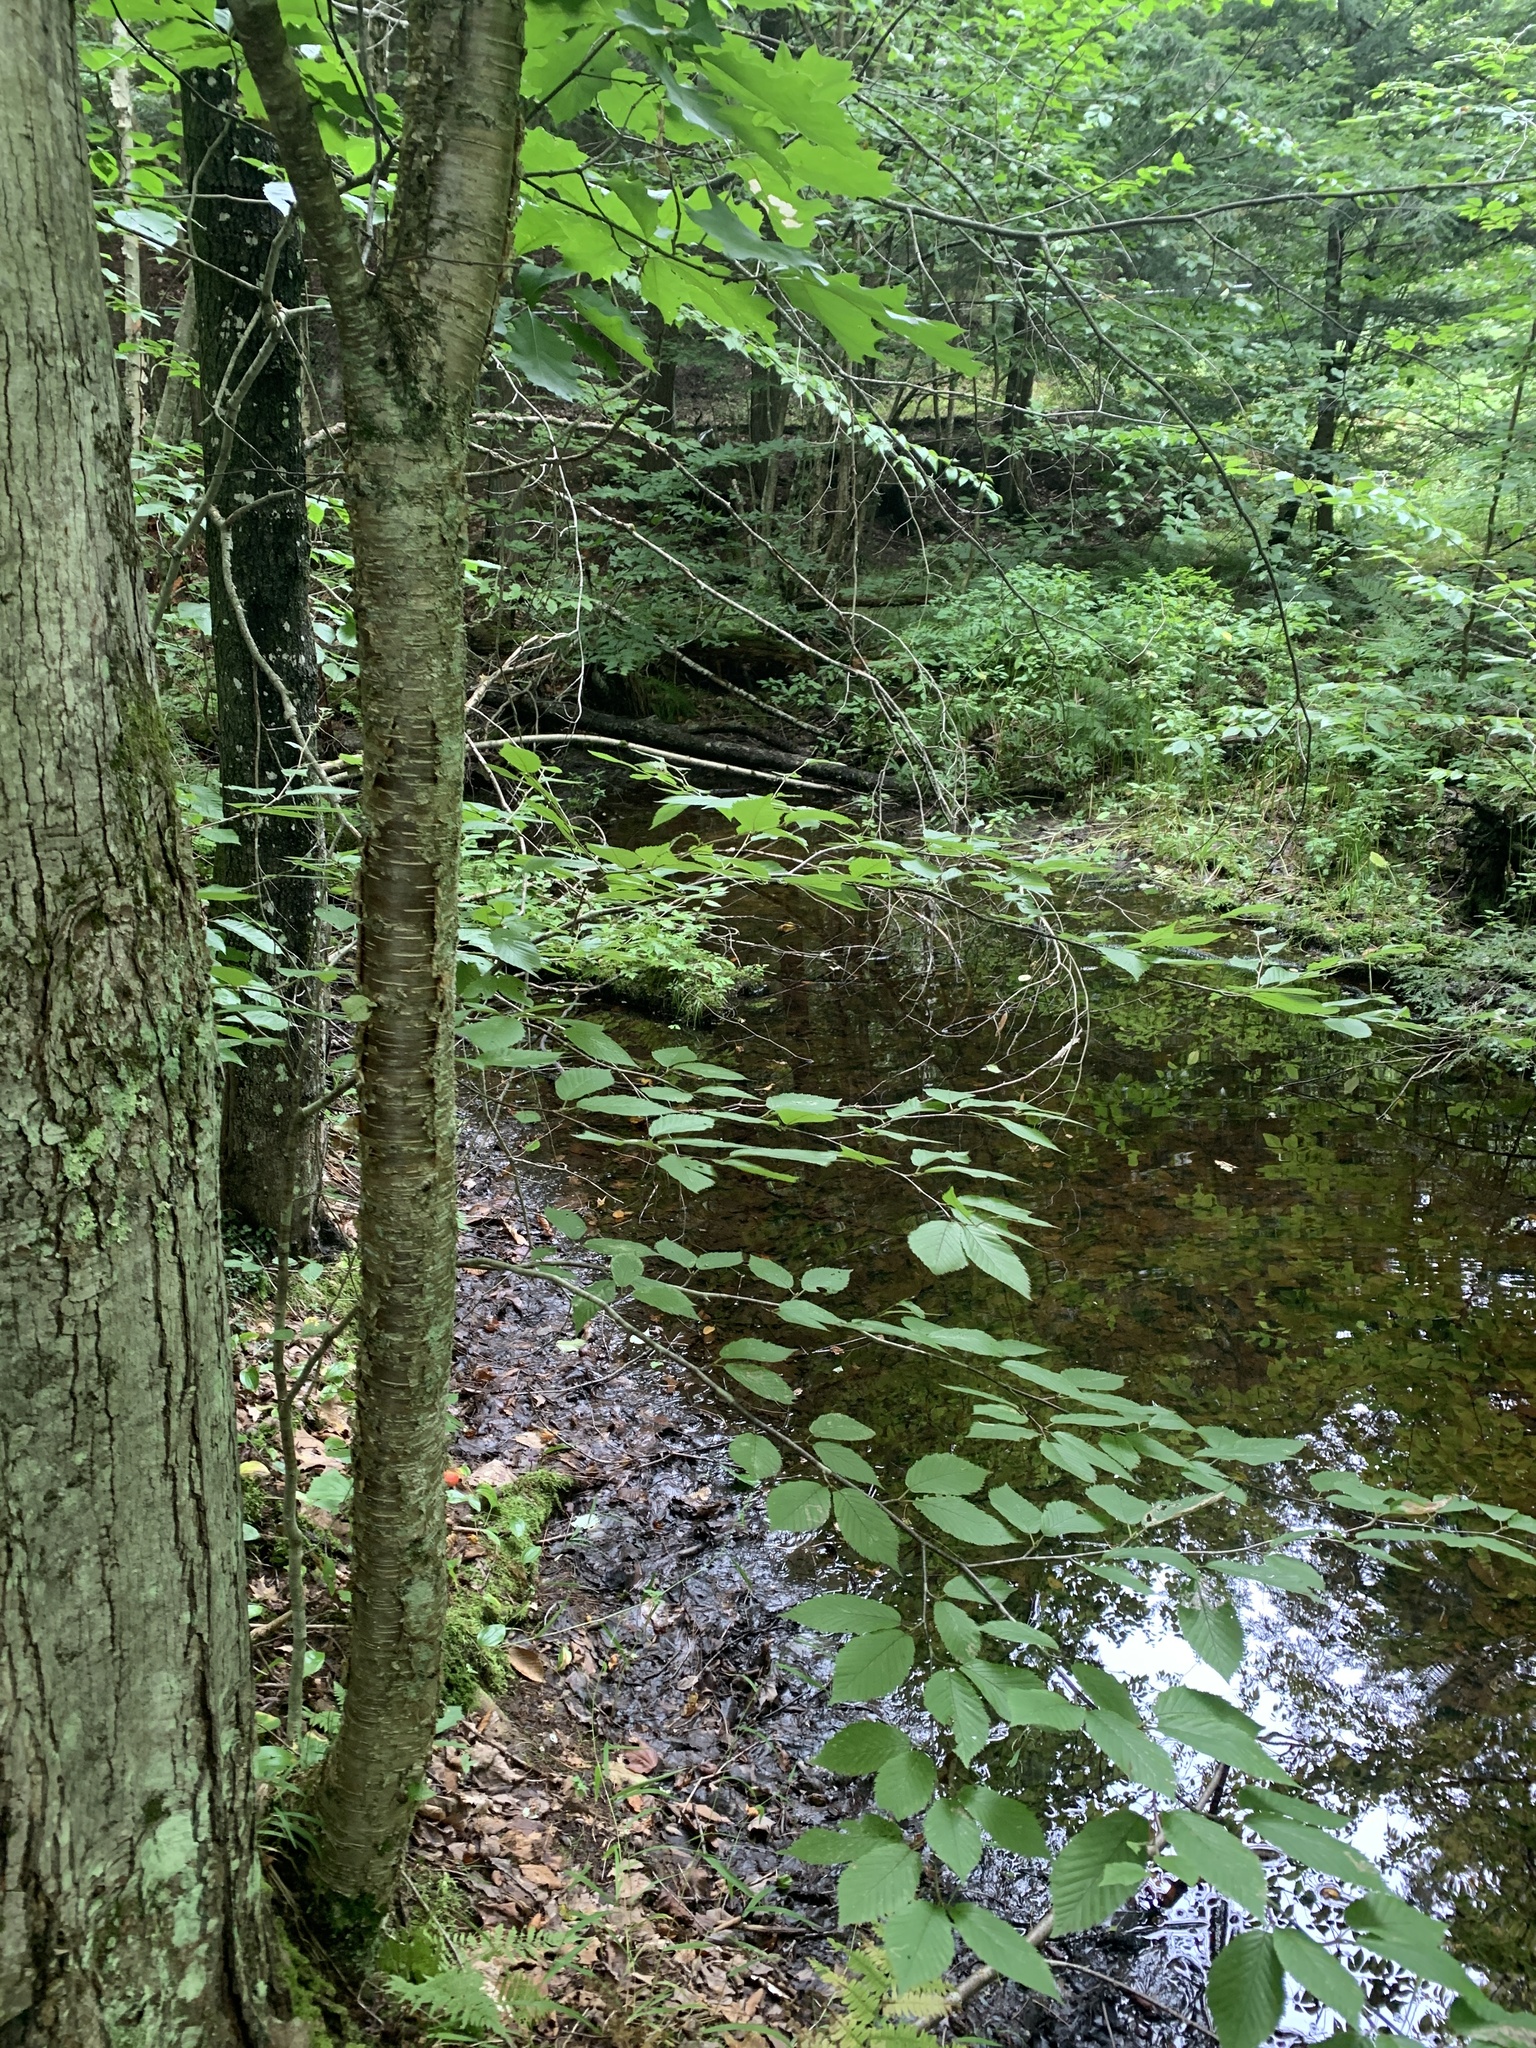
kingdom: Plantae
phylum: Tracheophyta
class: Magnoliopsida
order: Fagales
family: Betulaceae
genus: Betula
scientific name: Betula alleghaniensis
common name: Yellow birch
